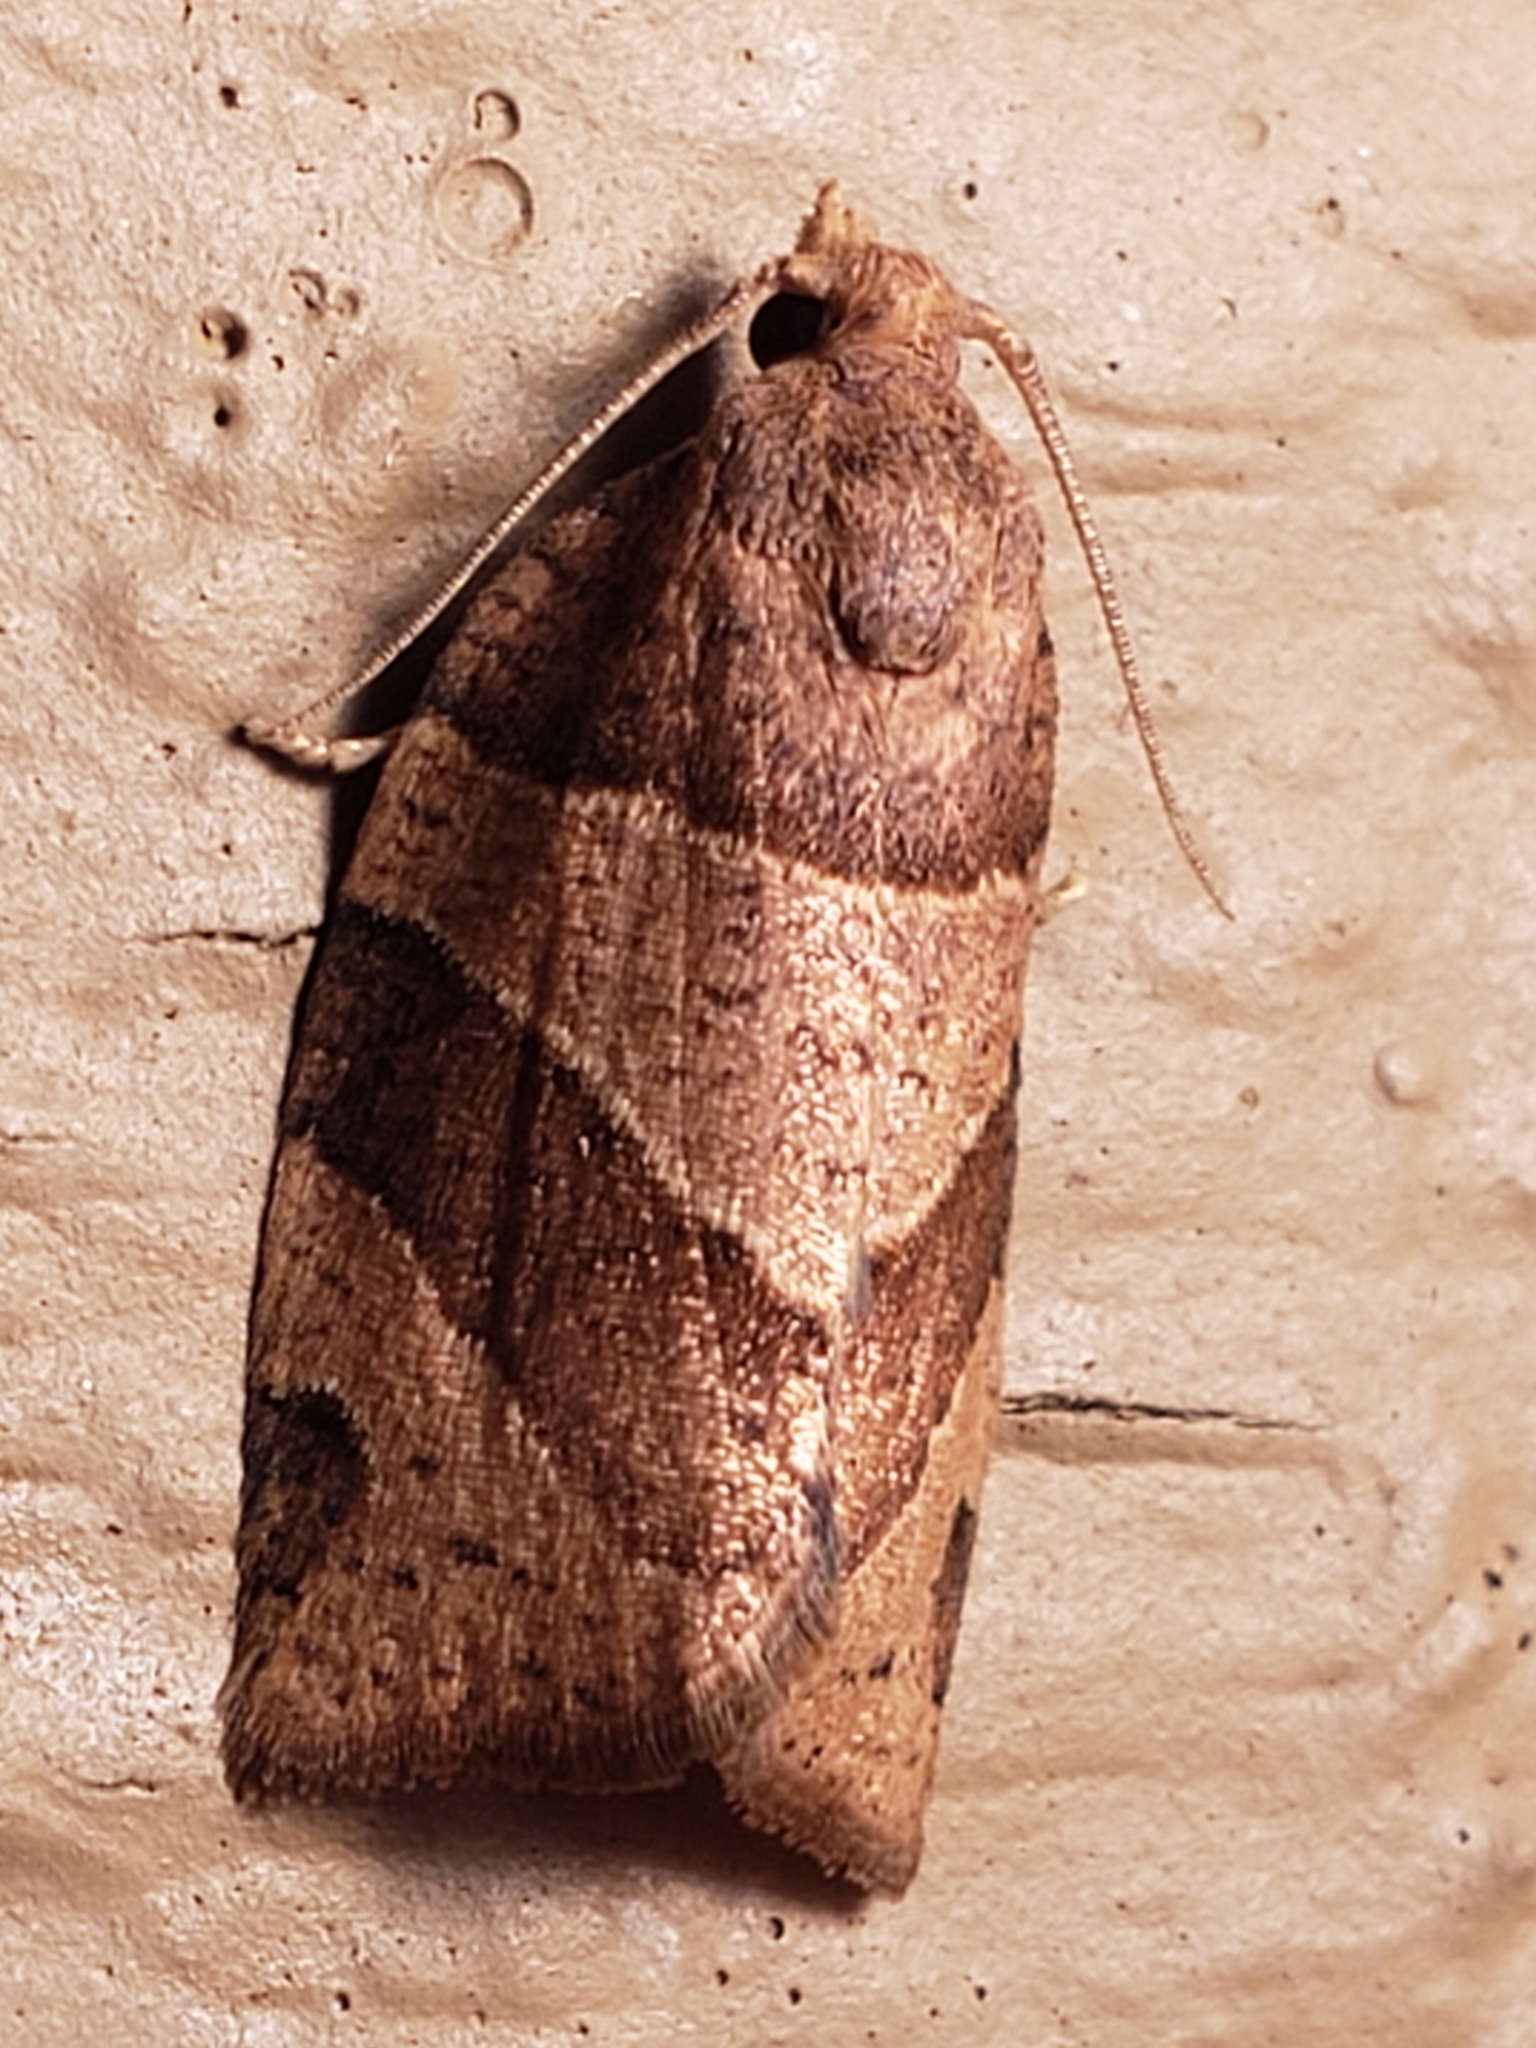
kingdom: Animalia
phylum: Arthropoda
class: Insecta
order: Lepidoptera
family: Tortricidae
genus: Pandemis
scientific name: Pandemis lamprosana
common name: Woodgrain leafroller moth
